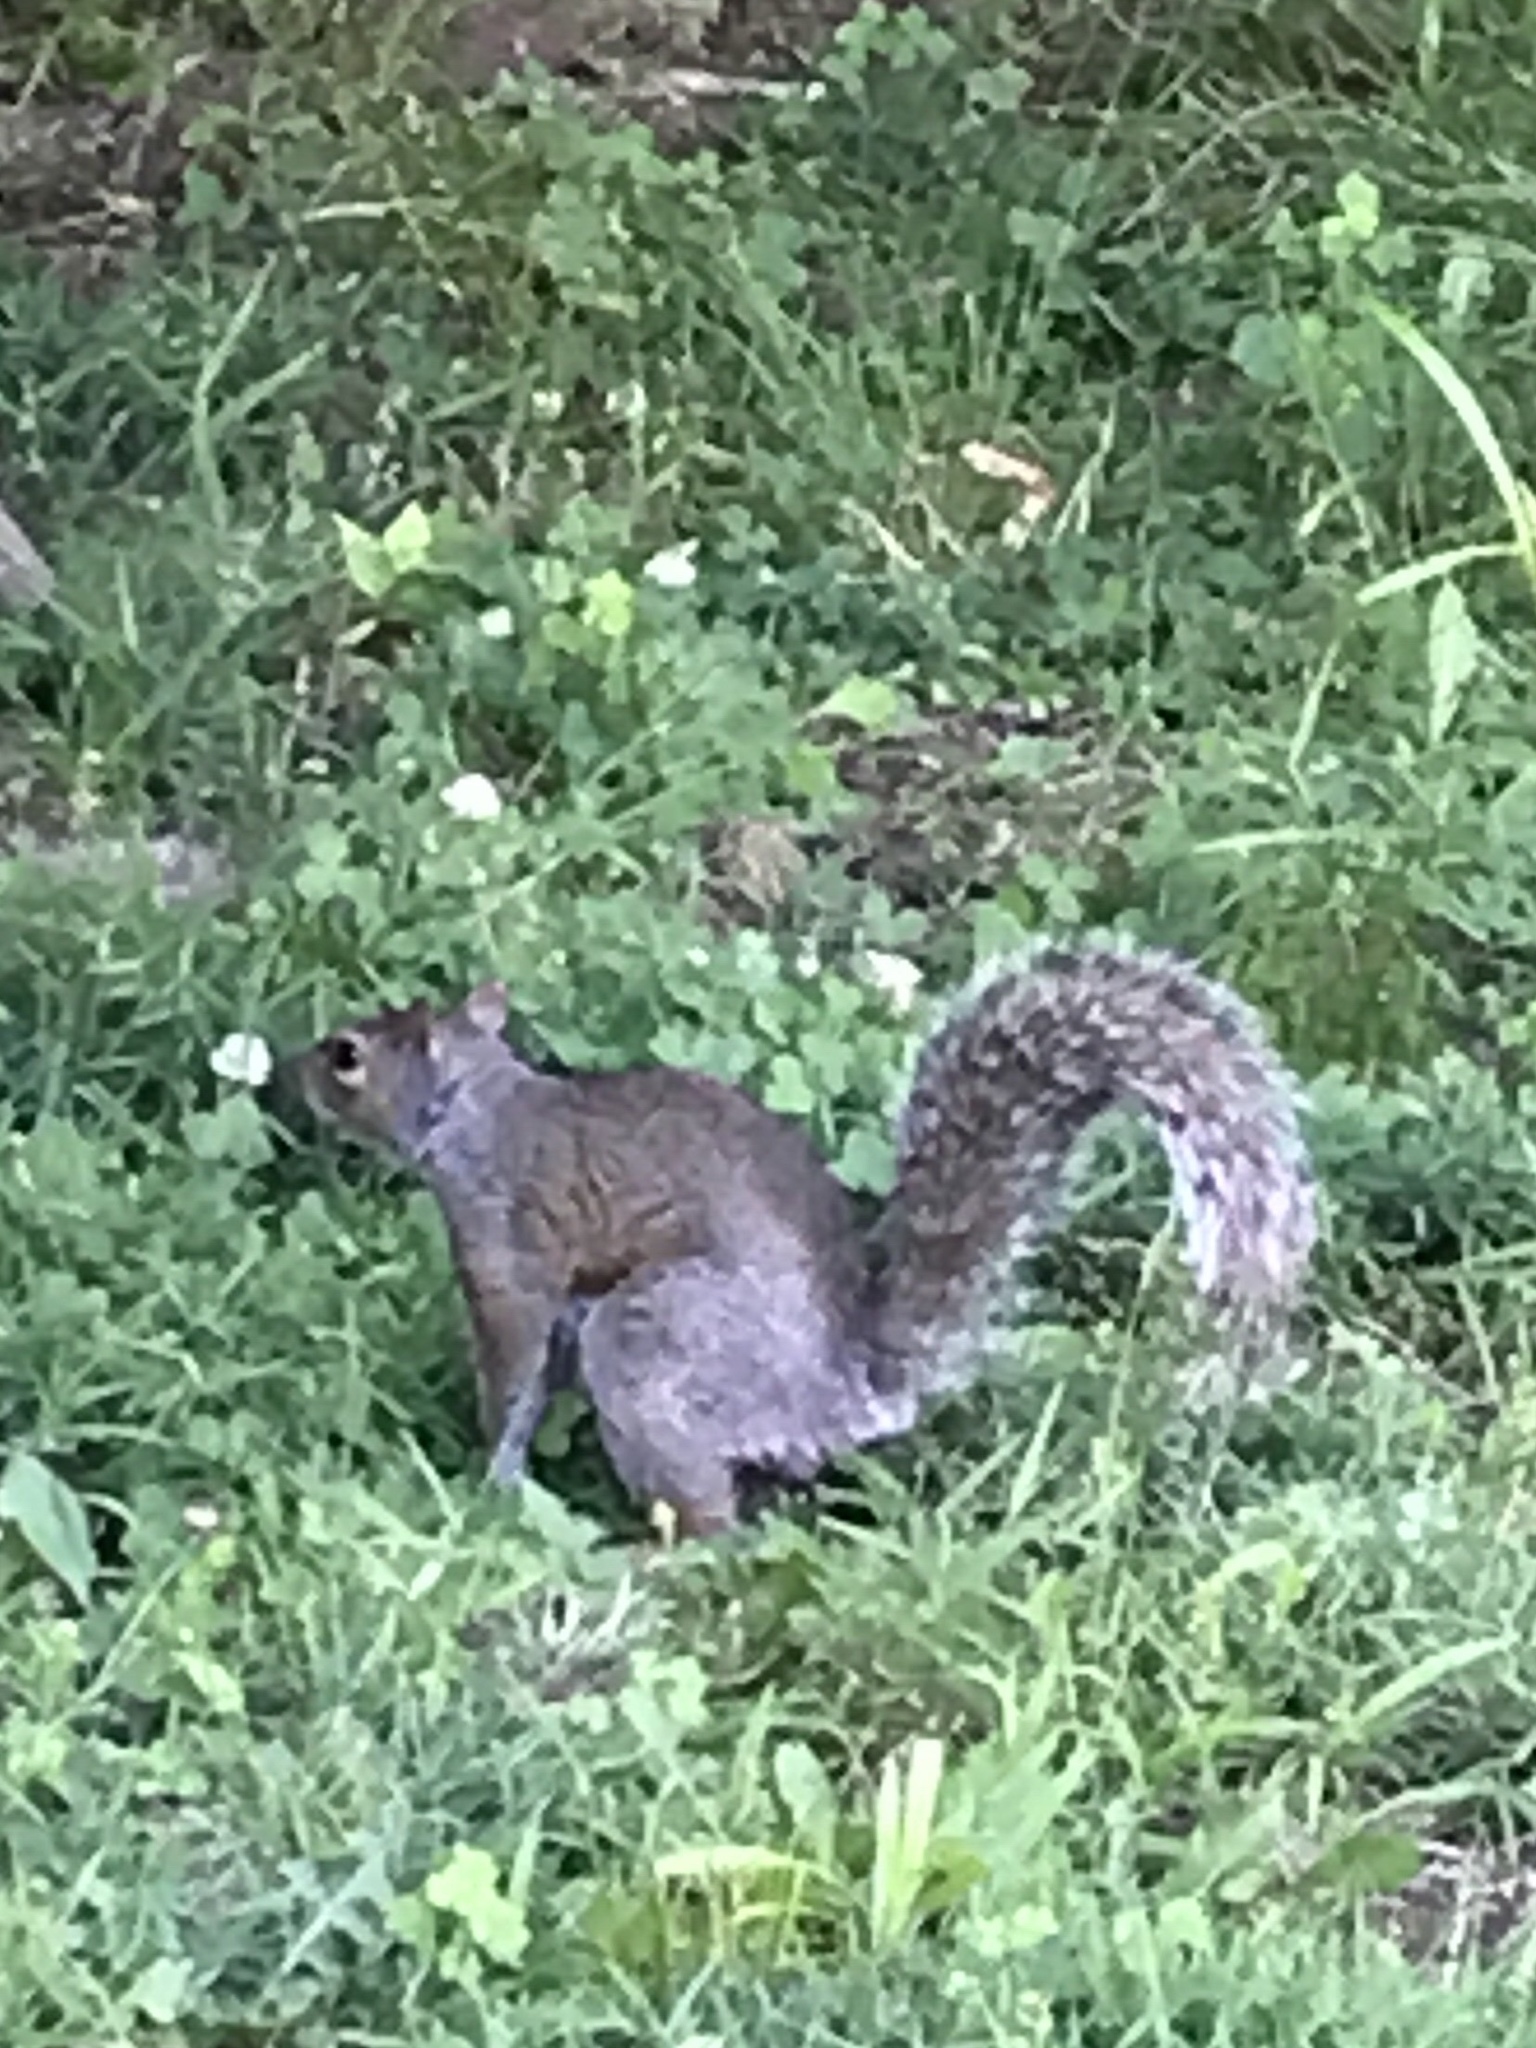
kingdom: Animalia
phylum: Chordata
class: Mammalia
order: Rodentia
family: Sciuridae
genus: Sciurus
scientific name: Sciurus carolinensis
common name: Eastern gray squirrel
